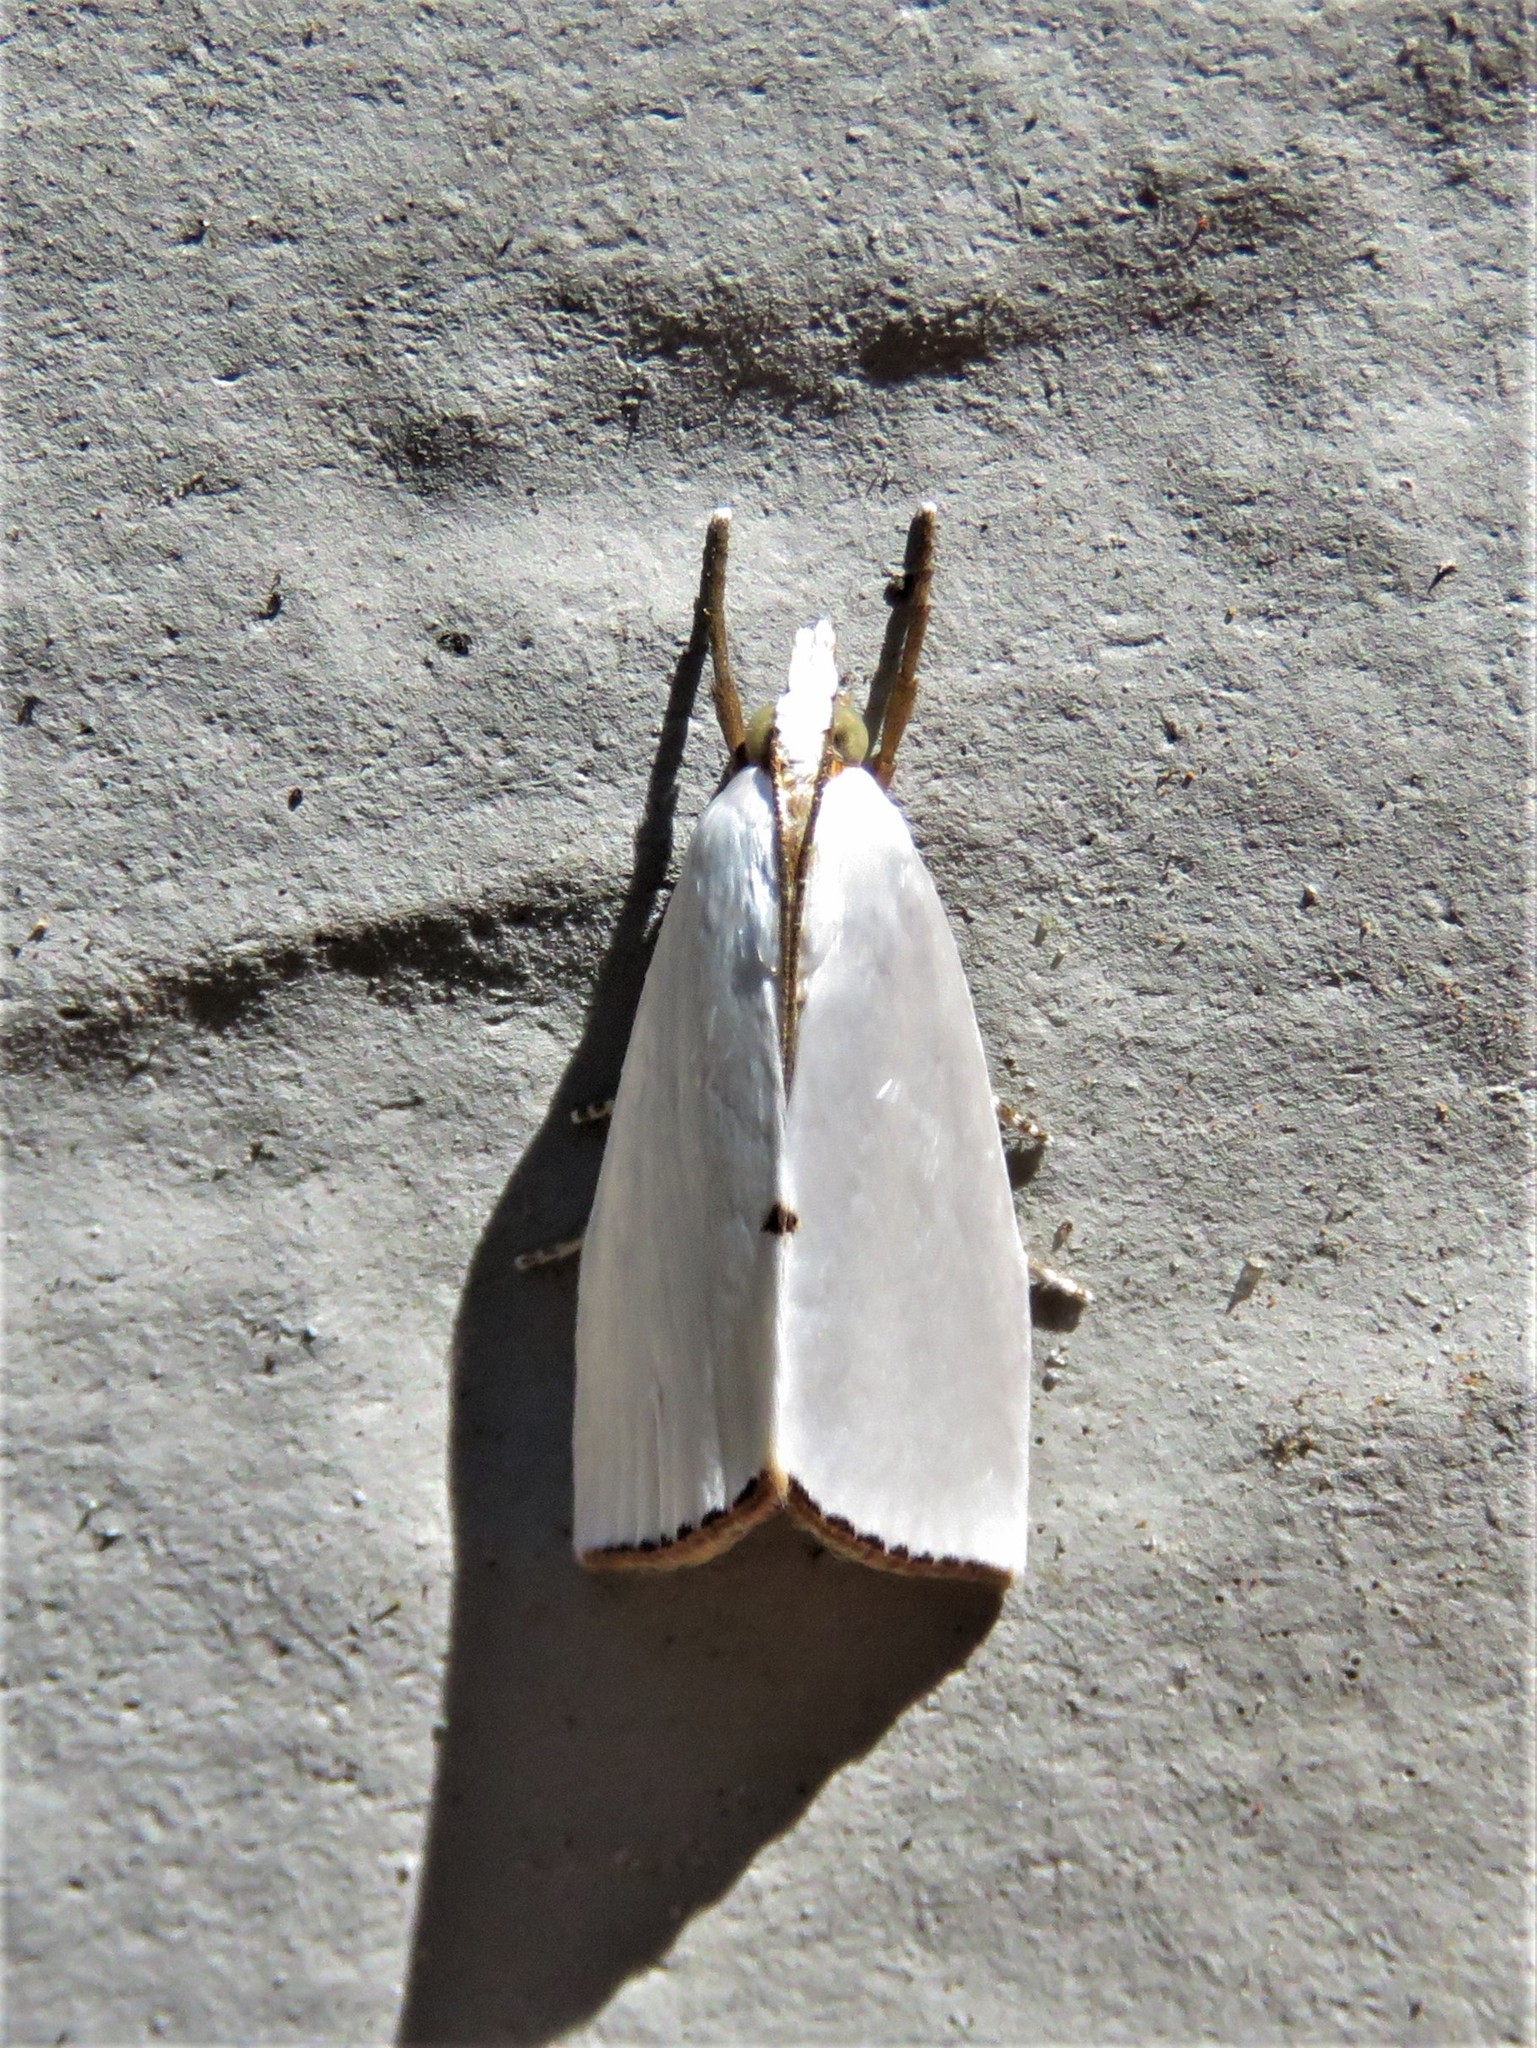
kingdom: Animalia
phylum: Arthropoda
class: Insecta
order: Lepidoptera
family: Crambidae
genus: Argyria
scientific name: Argyria nivalis
